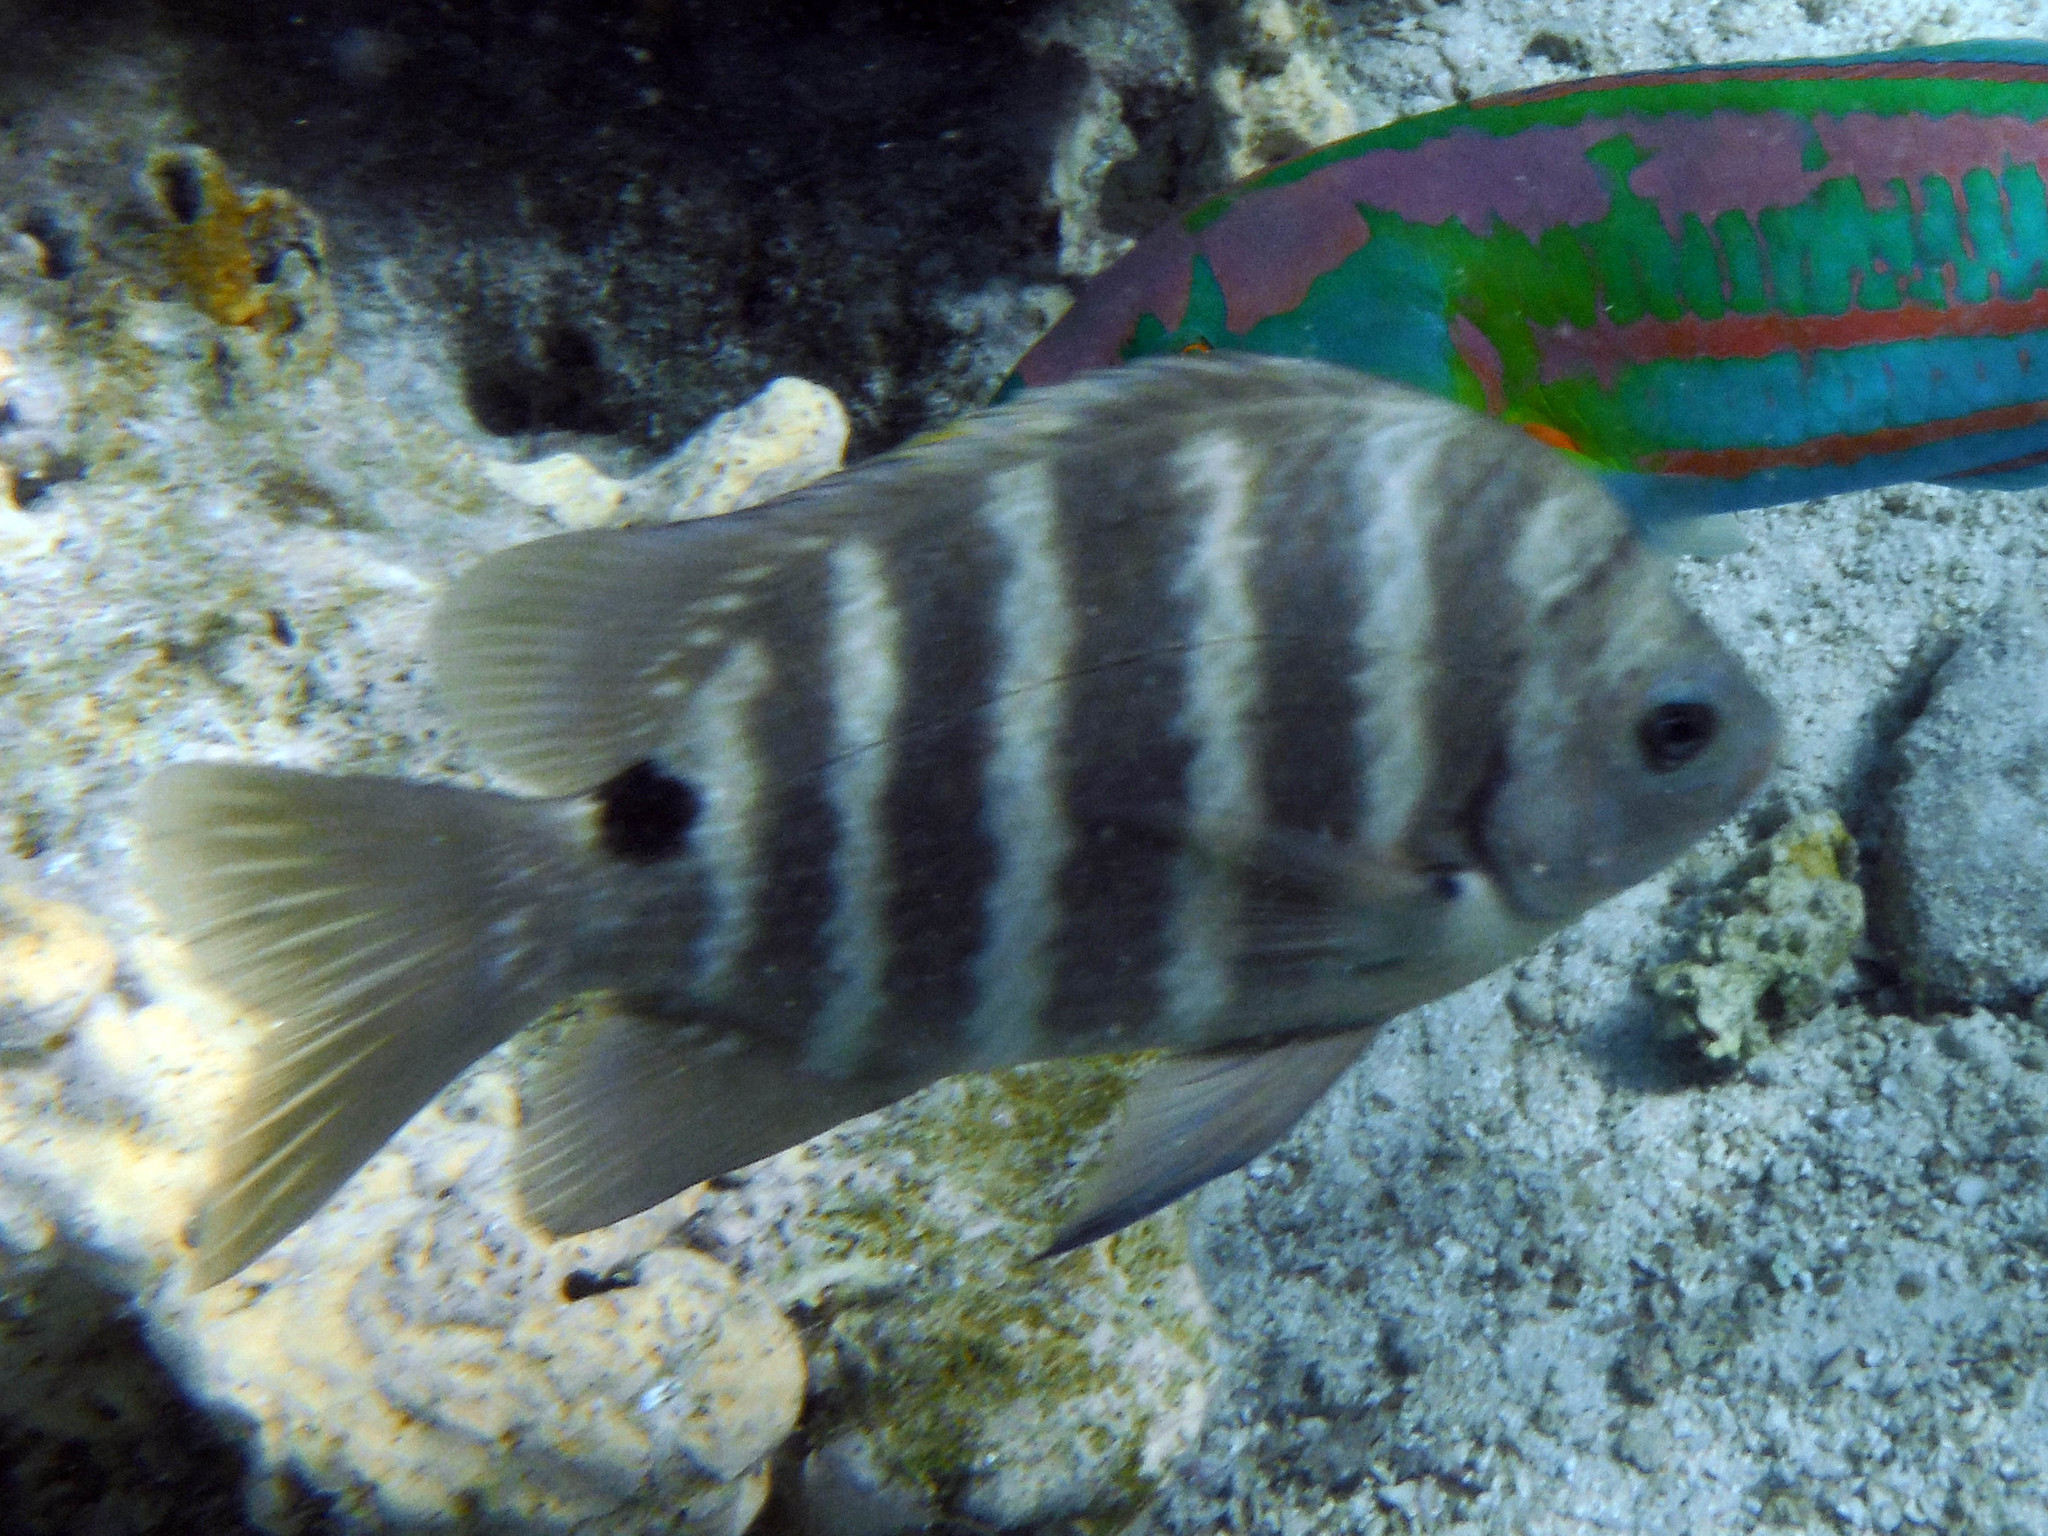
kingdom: Animalia
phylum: Chordata
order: Perciformes
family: Pomacentridae
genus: Abudefduf
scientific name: Abudefduf sordidus
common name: Blackspot sergeant
